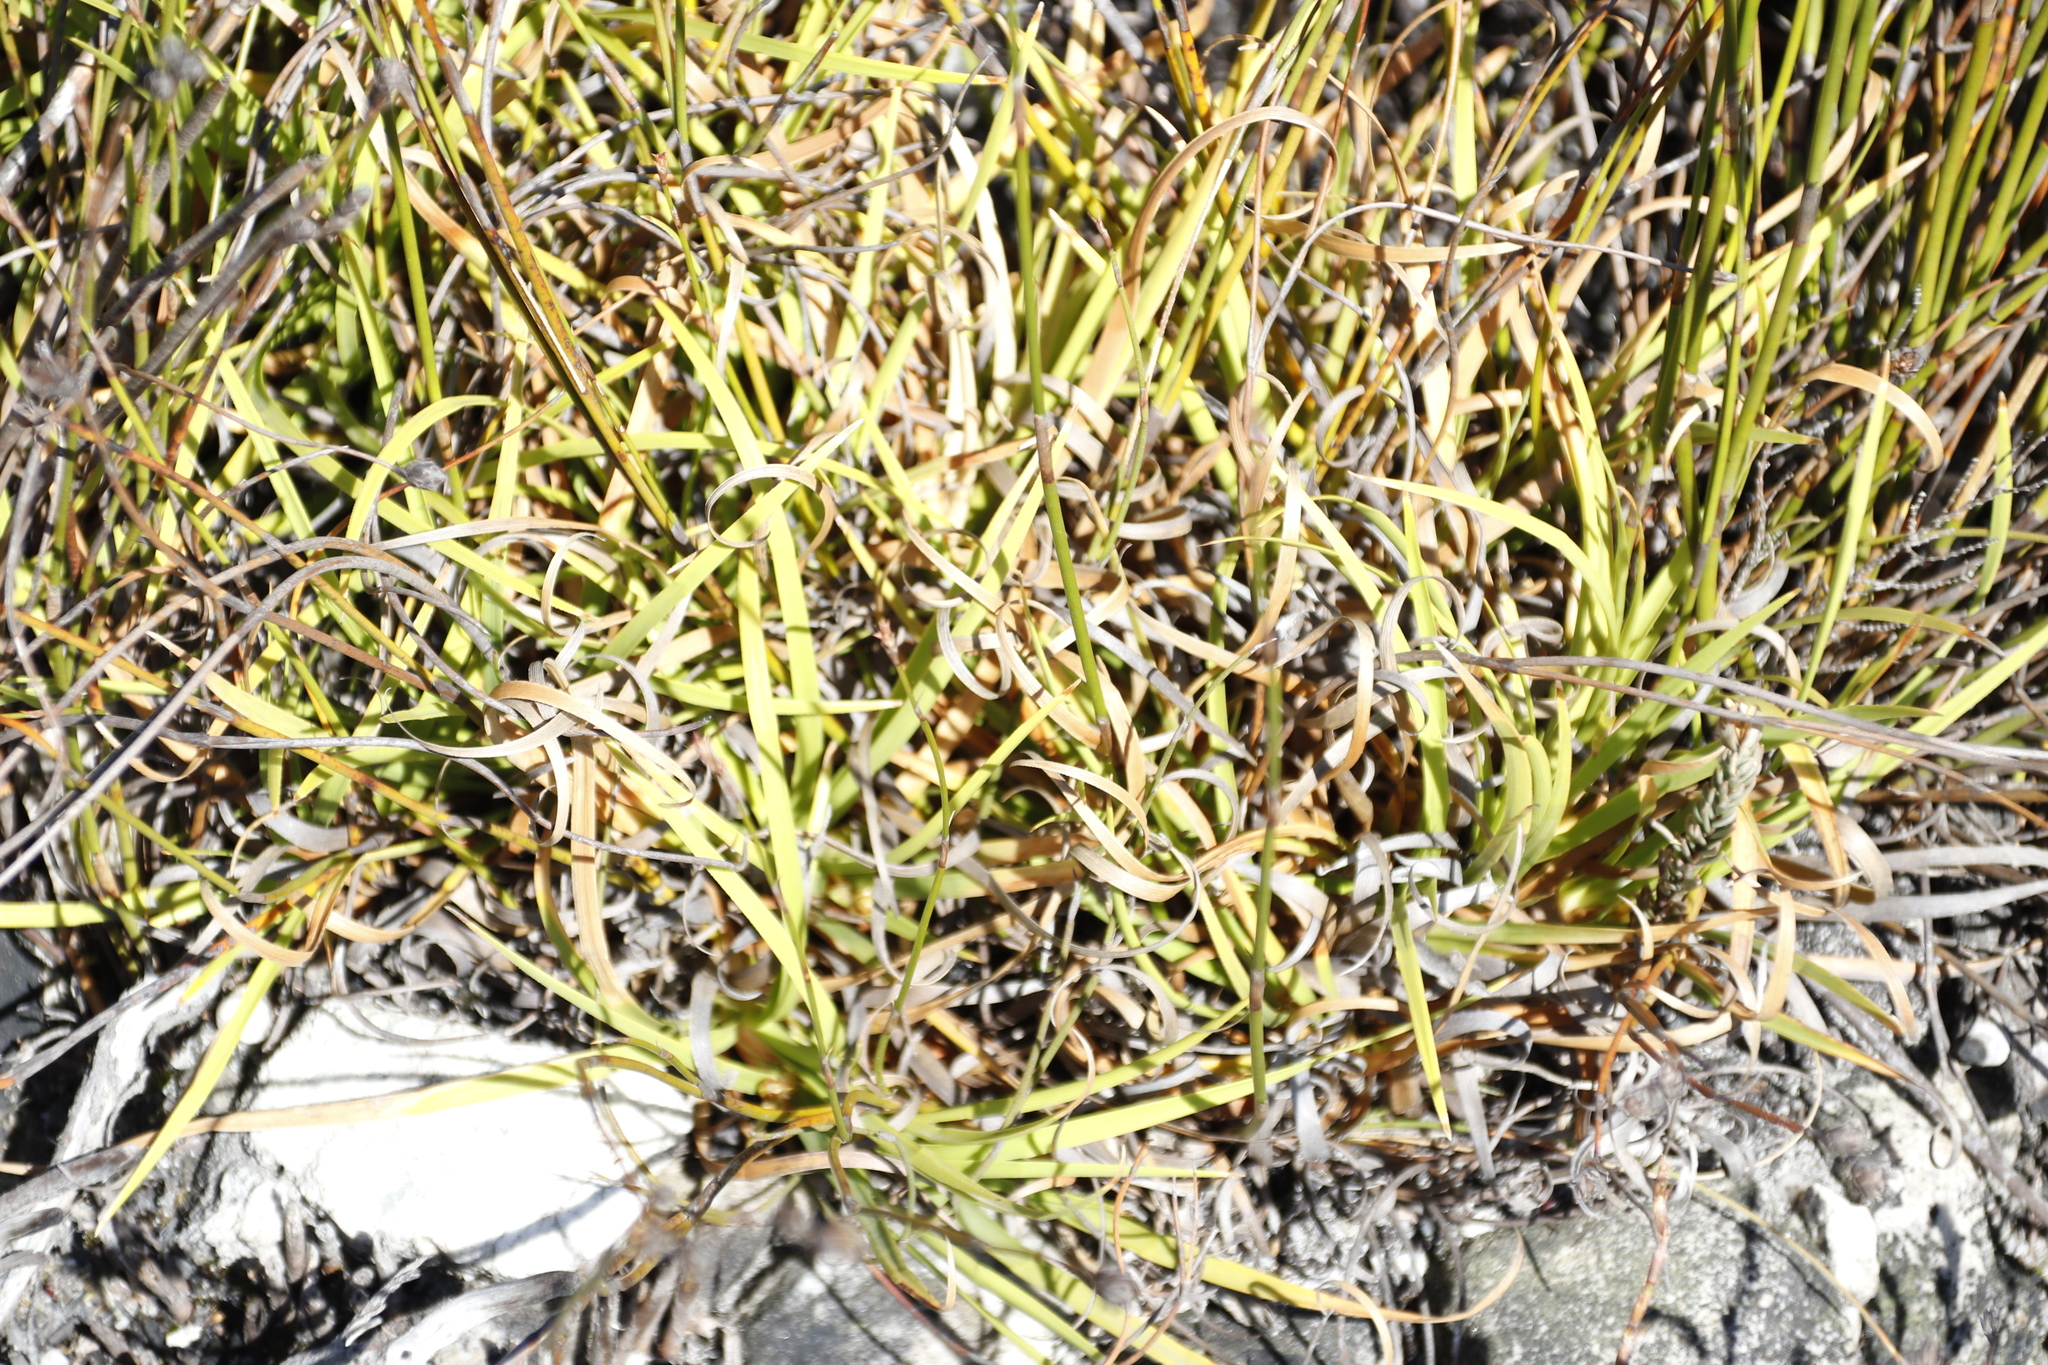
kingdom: Plantae
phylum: Tracheophyta
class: Liliopsida
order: Poales
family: Cyperaceae
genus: Capeobolus
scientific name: Capeobolus brevicaulis
